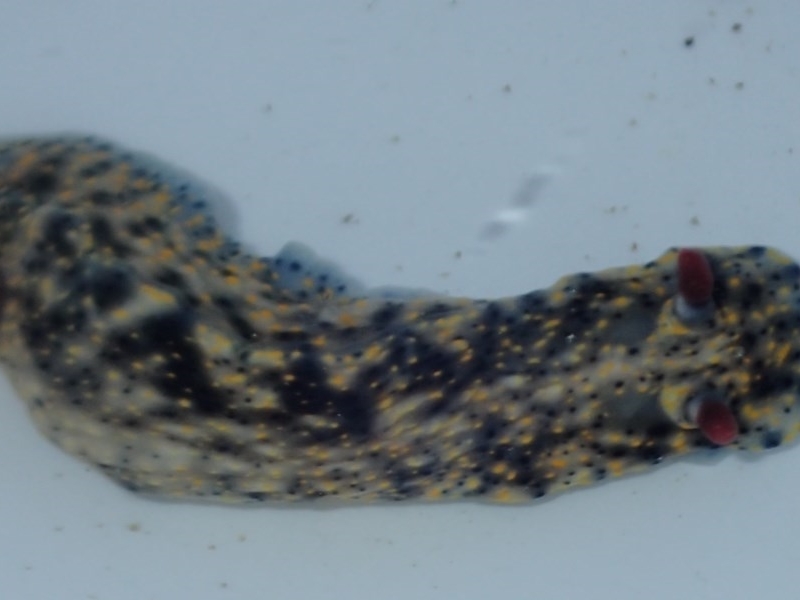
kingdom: Animalia
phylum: Mollusca
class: Gastropoda
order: Nudibranchia
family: Chromodorididae
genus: Hypselodoris
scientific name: Hypselodoris obscura
